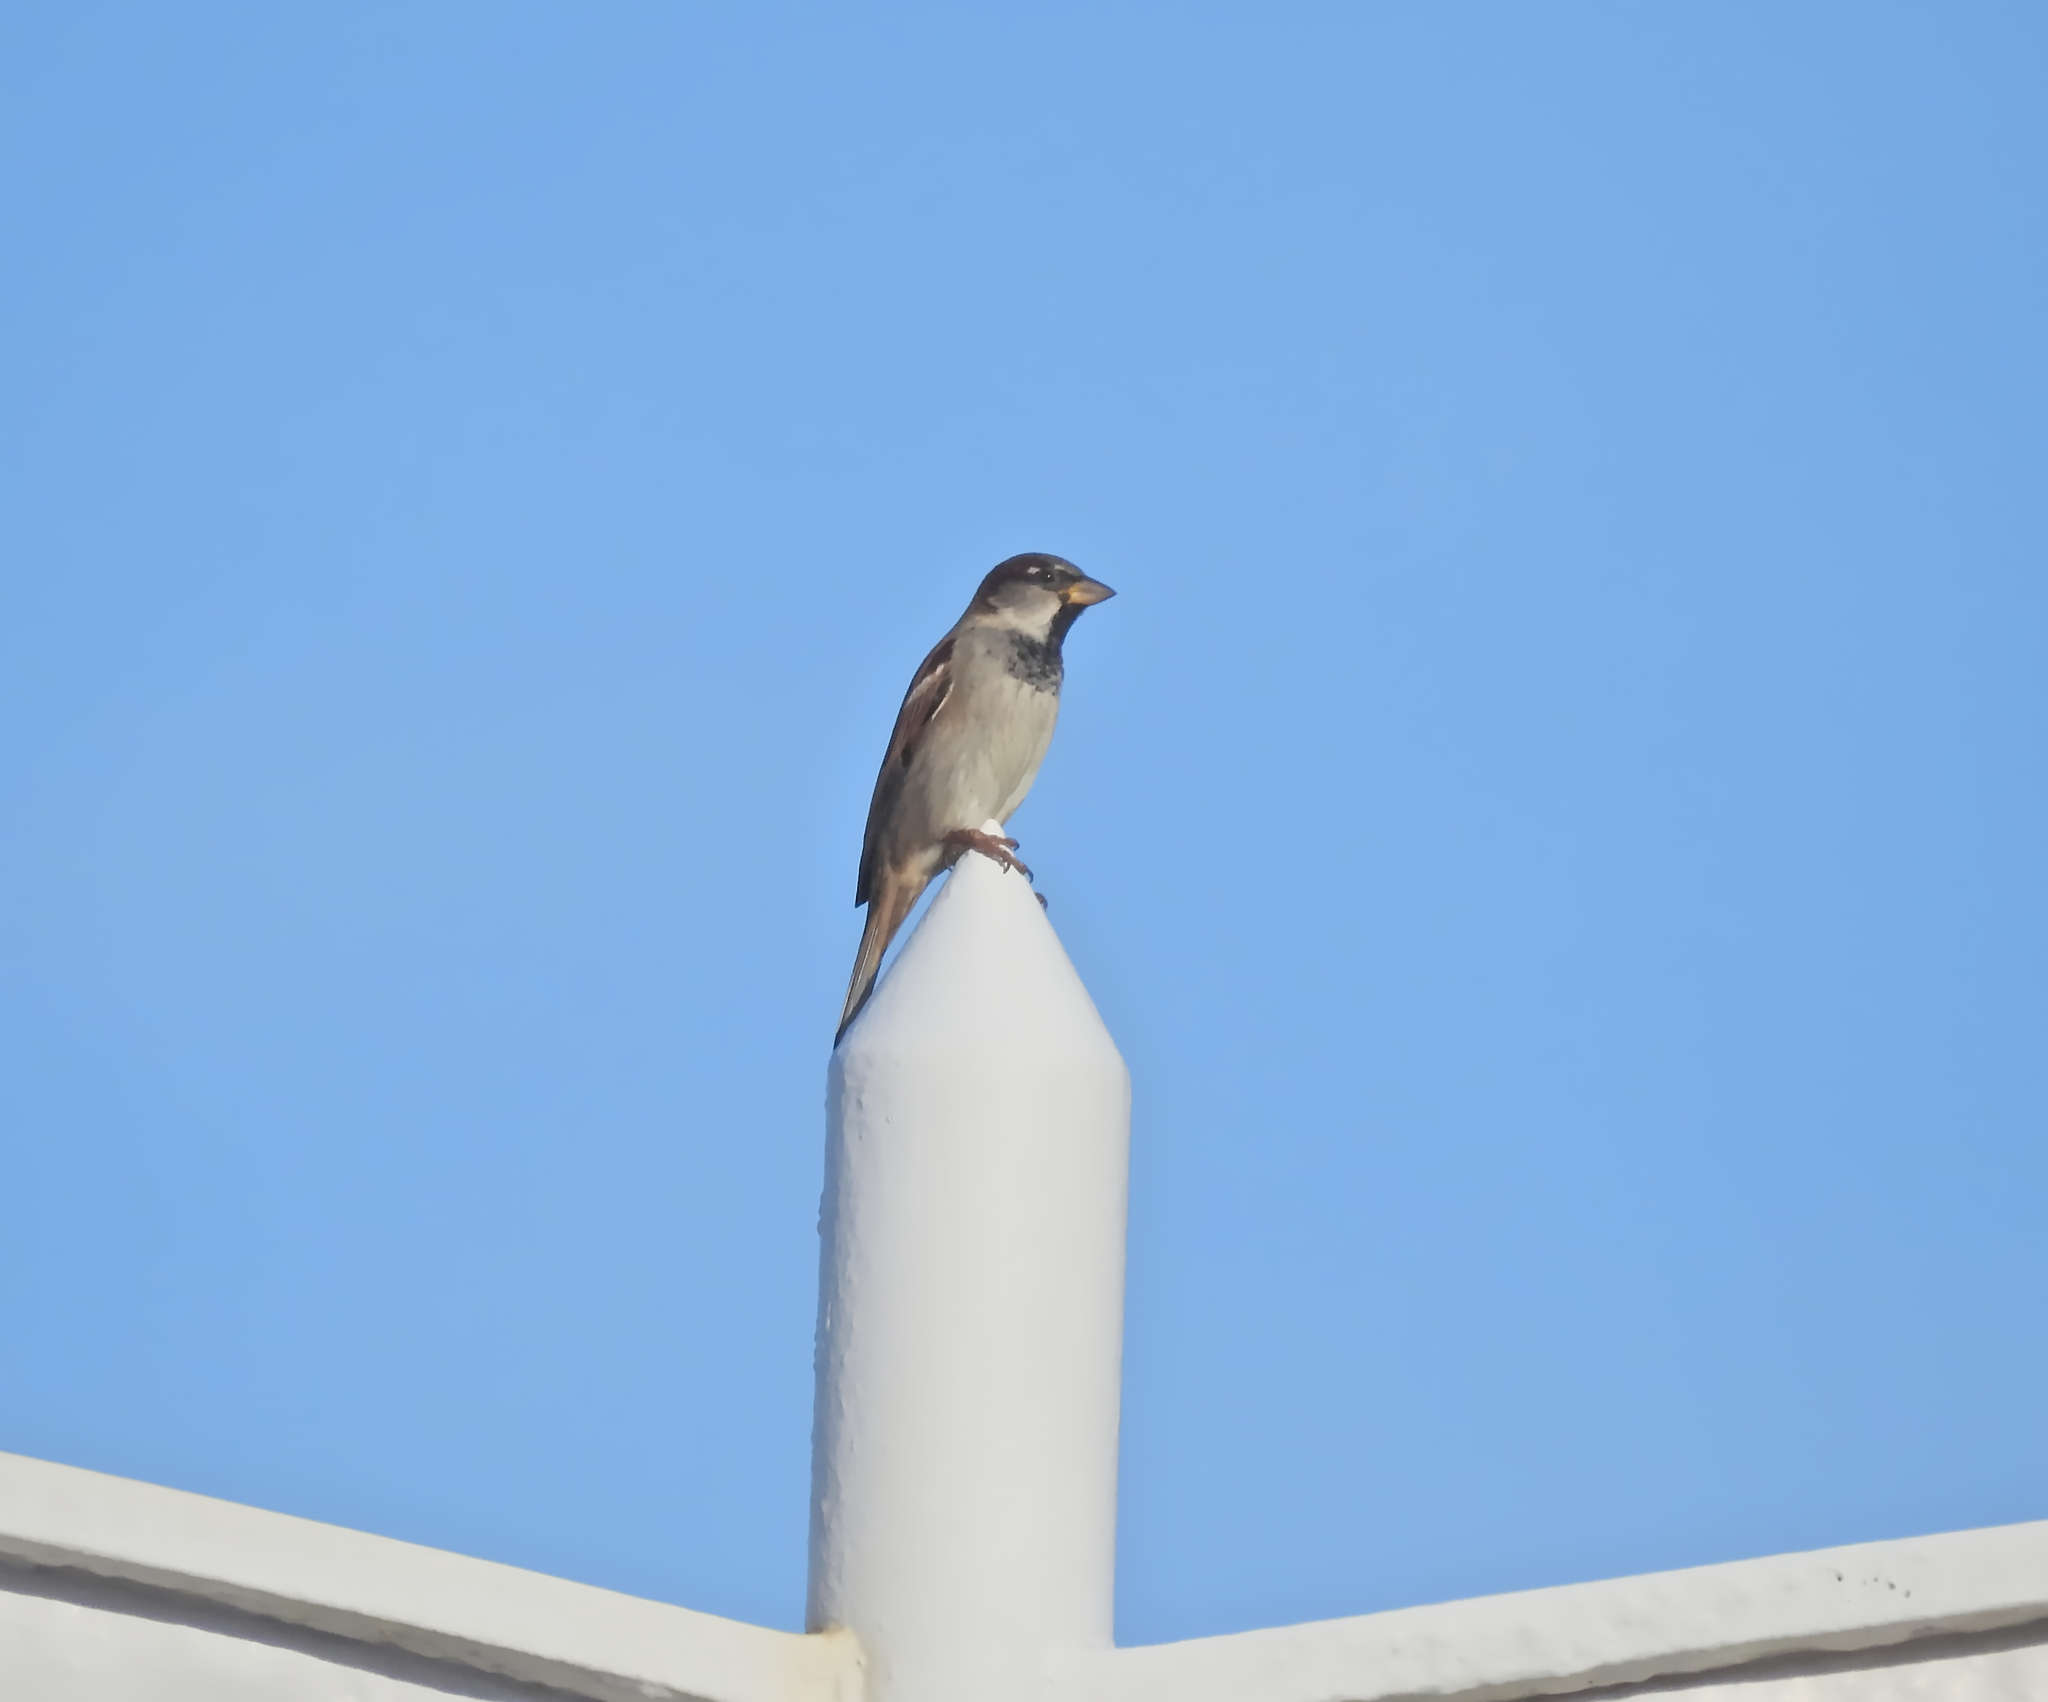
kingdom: Animalia
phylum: Chordata
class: Aves
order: Passeriformes
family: Passeridae
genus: Passer
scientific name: Passer domesticus
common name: House sparrow
